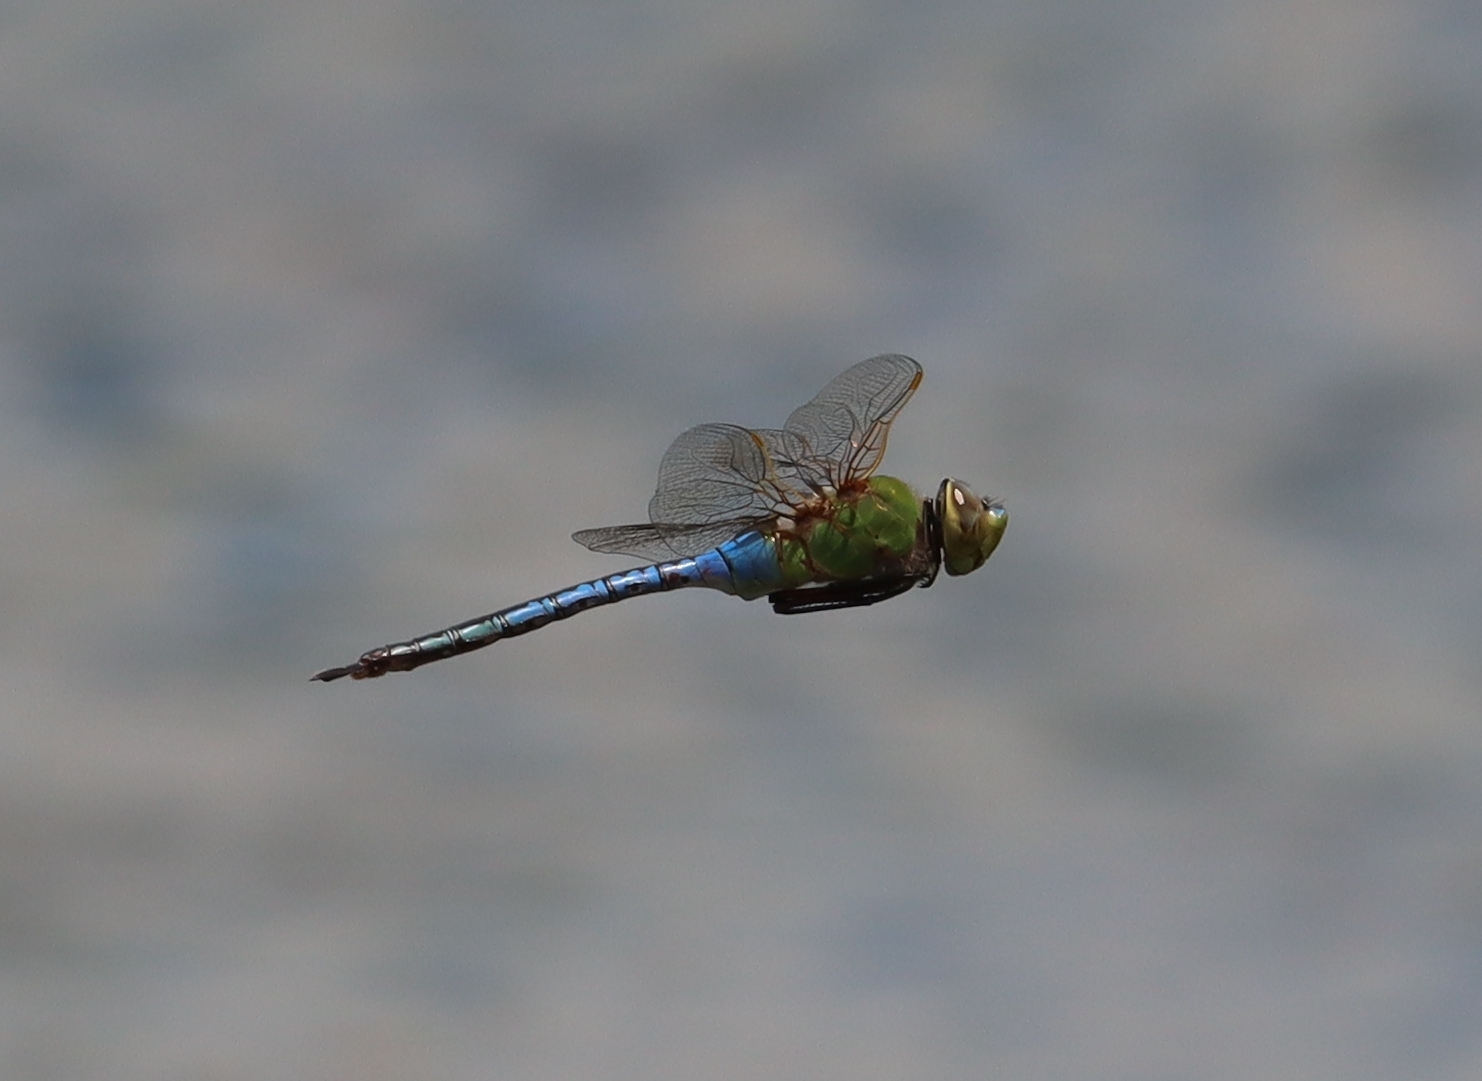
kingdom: Animalia
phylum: Arthropoda
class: Insecta
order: Odonata
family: Aeshnidae
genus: Anax
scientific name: Anax junius
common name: Common green darner
